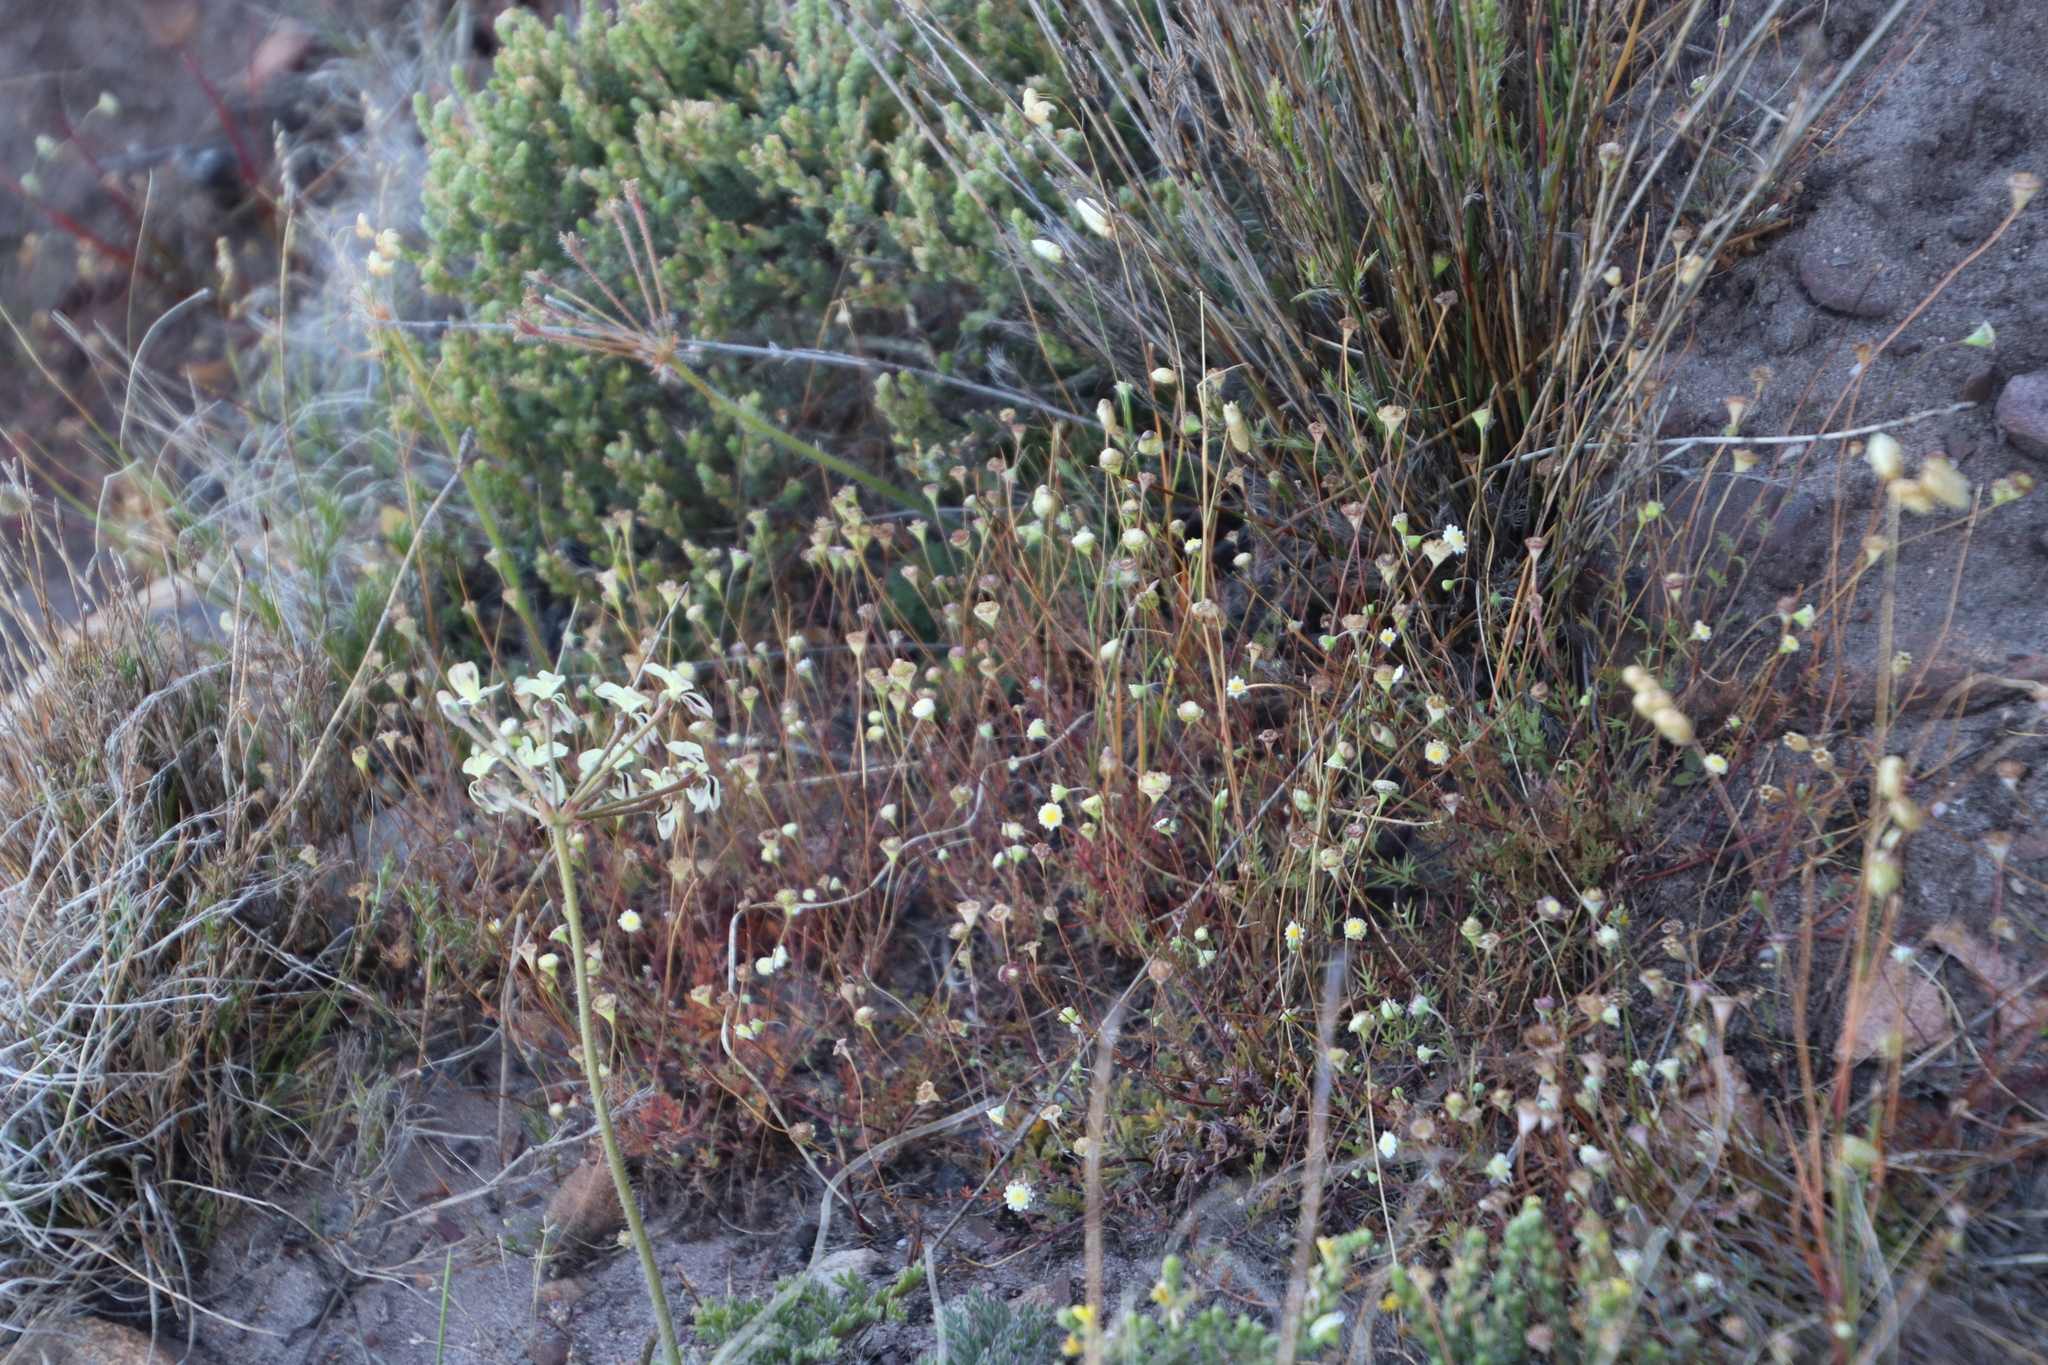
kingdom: Plantae
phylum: Tracheophyta
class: Magnoliopsida
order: Asterales
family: Asteraceae
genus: Cotula
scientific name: Cotula turbinata
